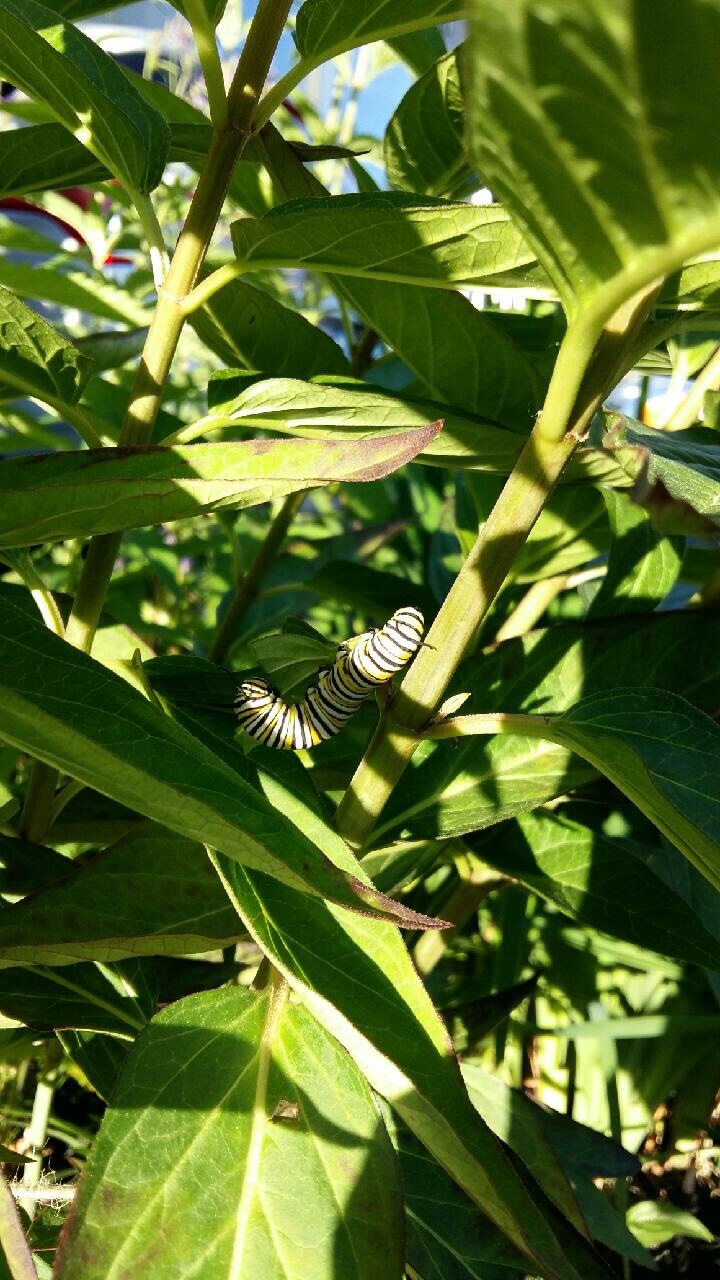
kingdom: Animalia
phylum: Arthropoda
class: Insecta
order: Lepidoptera
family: Nymphalidae
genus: Danaus
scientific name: Danaus plexippus
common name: Monarch
